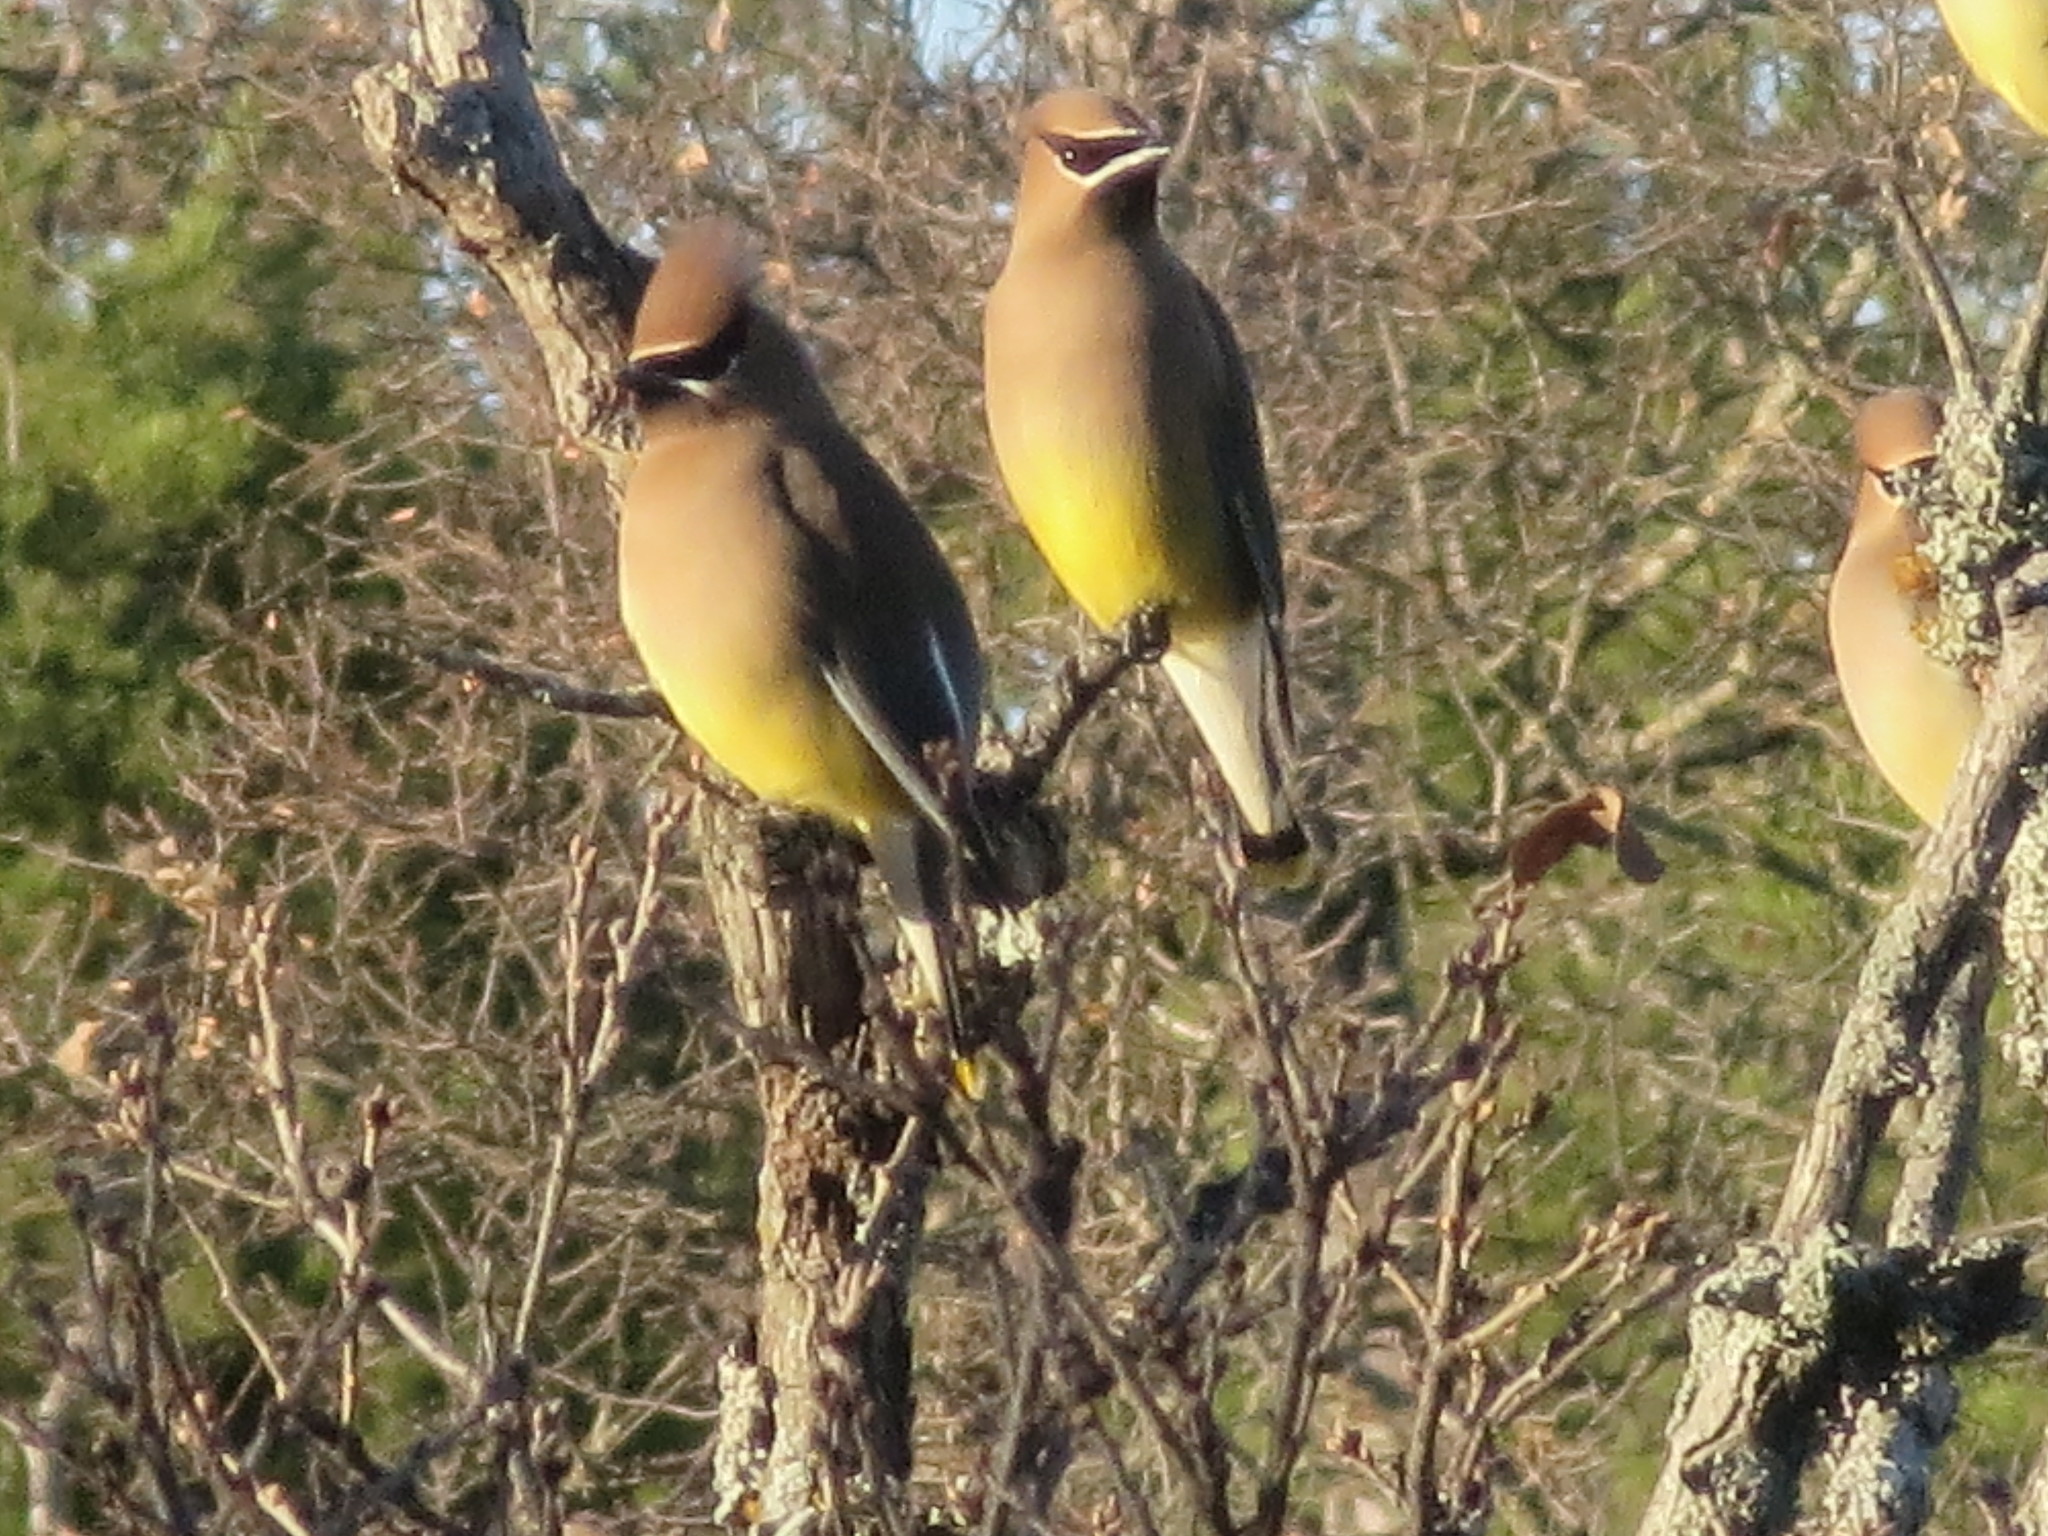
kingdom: Animalia
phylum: Chordata
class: Aves
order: Passeriformes
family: Bombycillidae
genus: Bombycilla
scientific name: Bombycilla cedrorum
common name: Cedar waxwing
